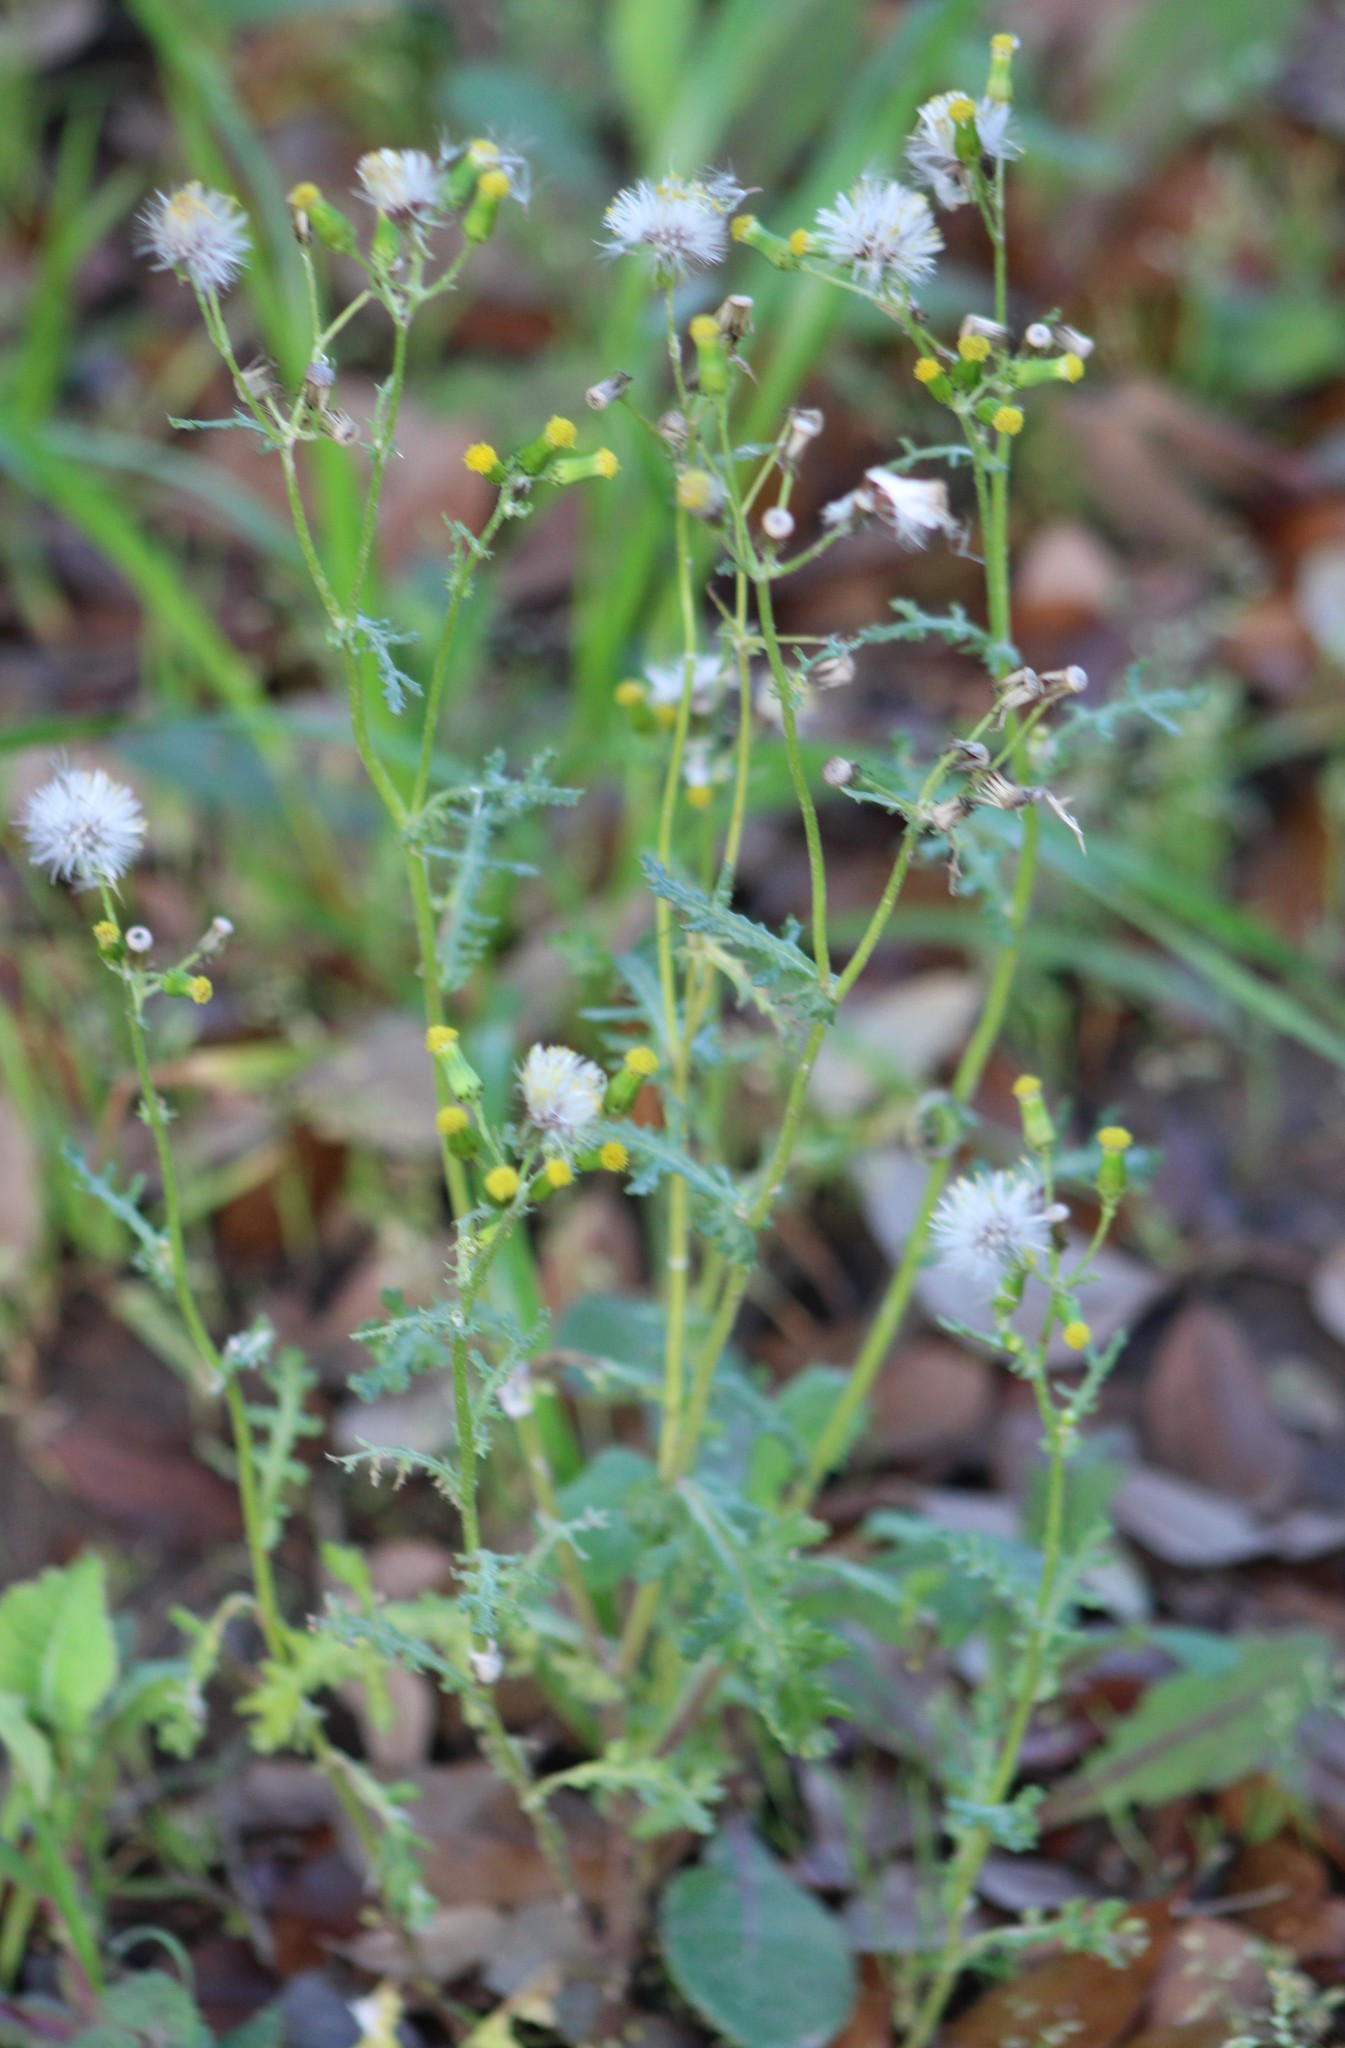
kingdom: Plantae
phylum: Tracheophyta
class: Magnoliopsida
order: Asterales
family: Asteraceae
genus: Senecio
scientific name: Senecio vulgaris
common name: Old-man-in-the-spring
